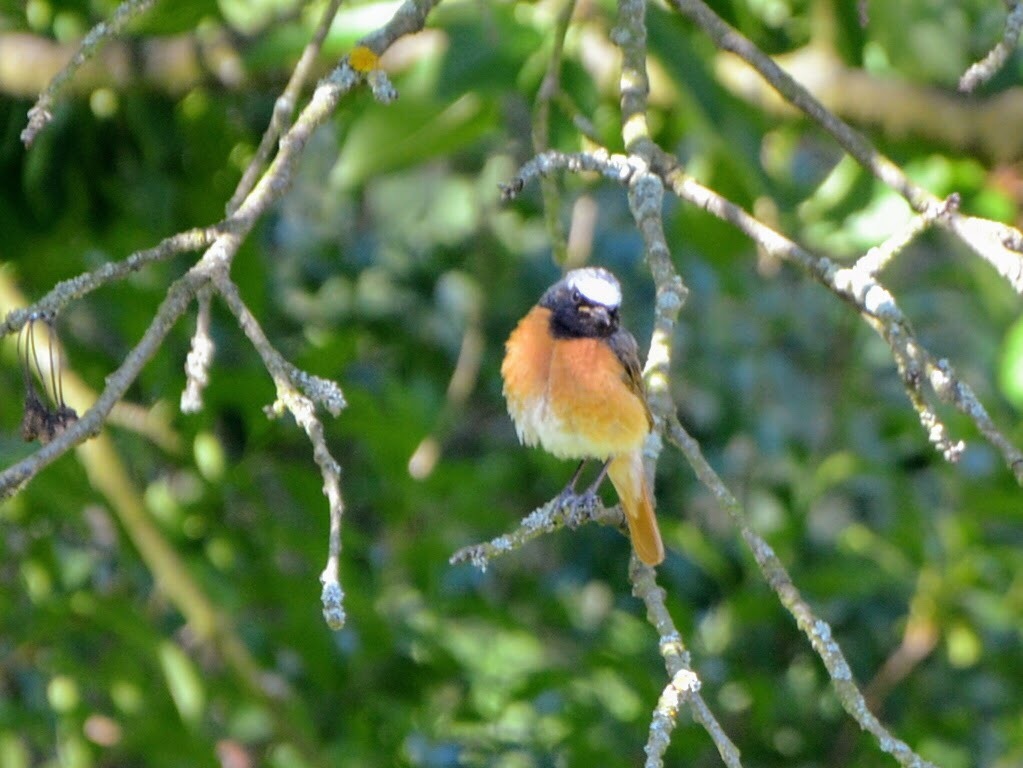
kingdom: Animalia
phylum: Chordata
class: Aves
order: Passeriformes
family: Muscicapidae
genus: Phoenicurus
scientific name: Phoenicurus phoenicurus
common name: Common redstart
